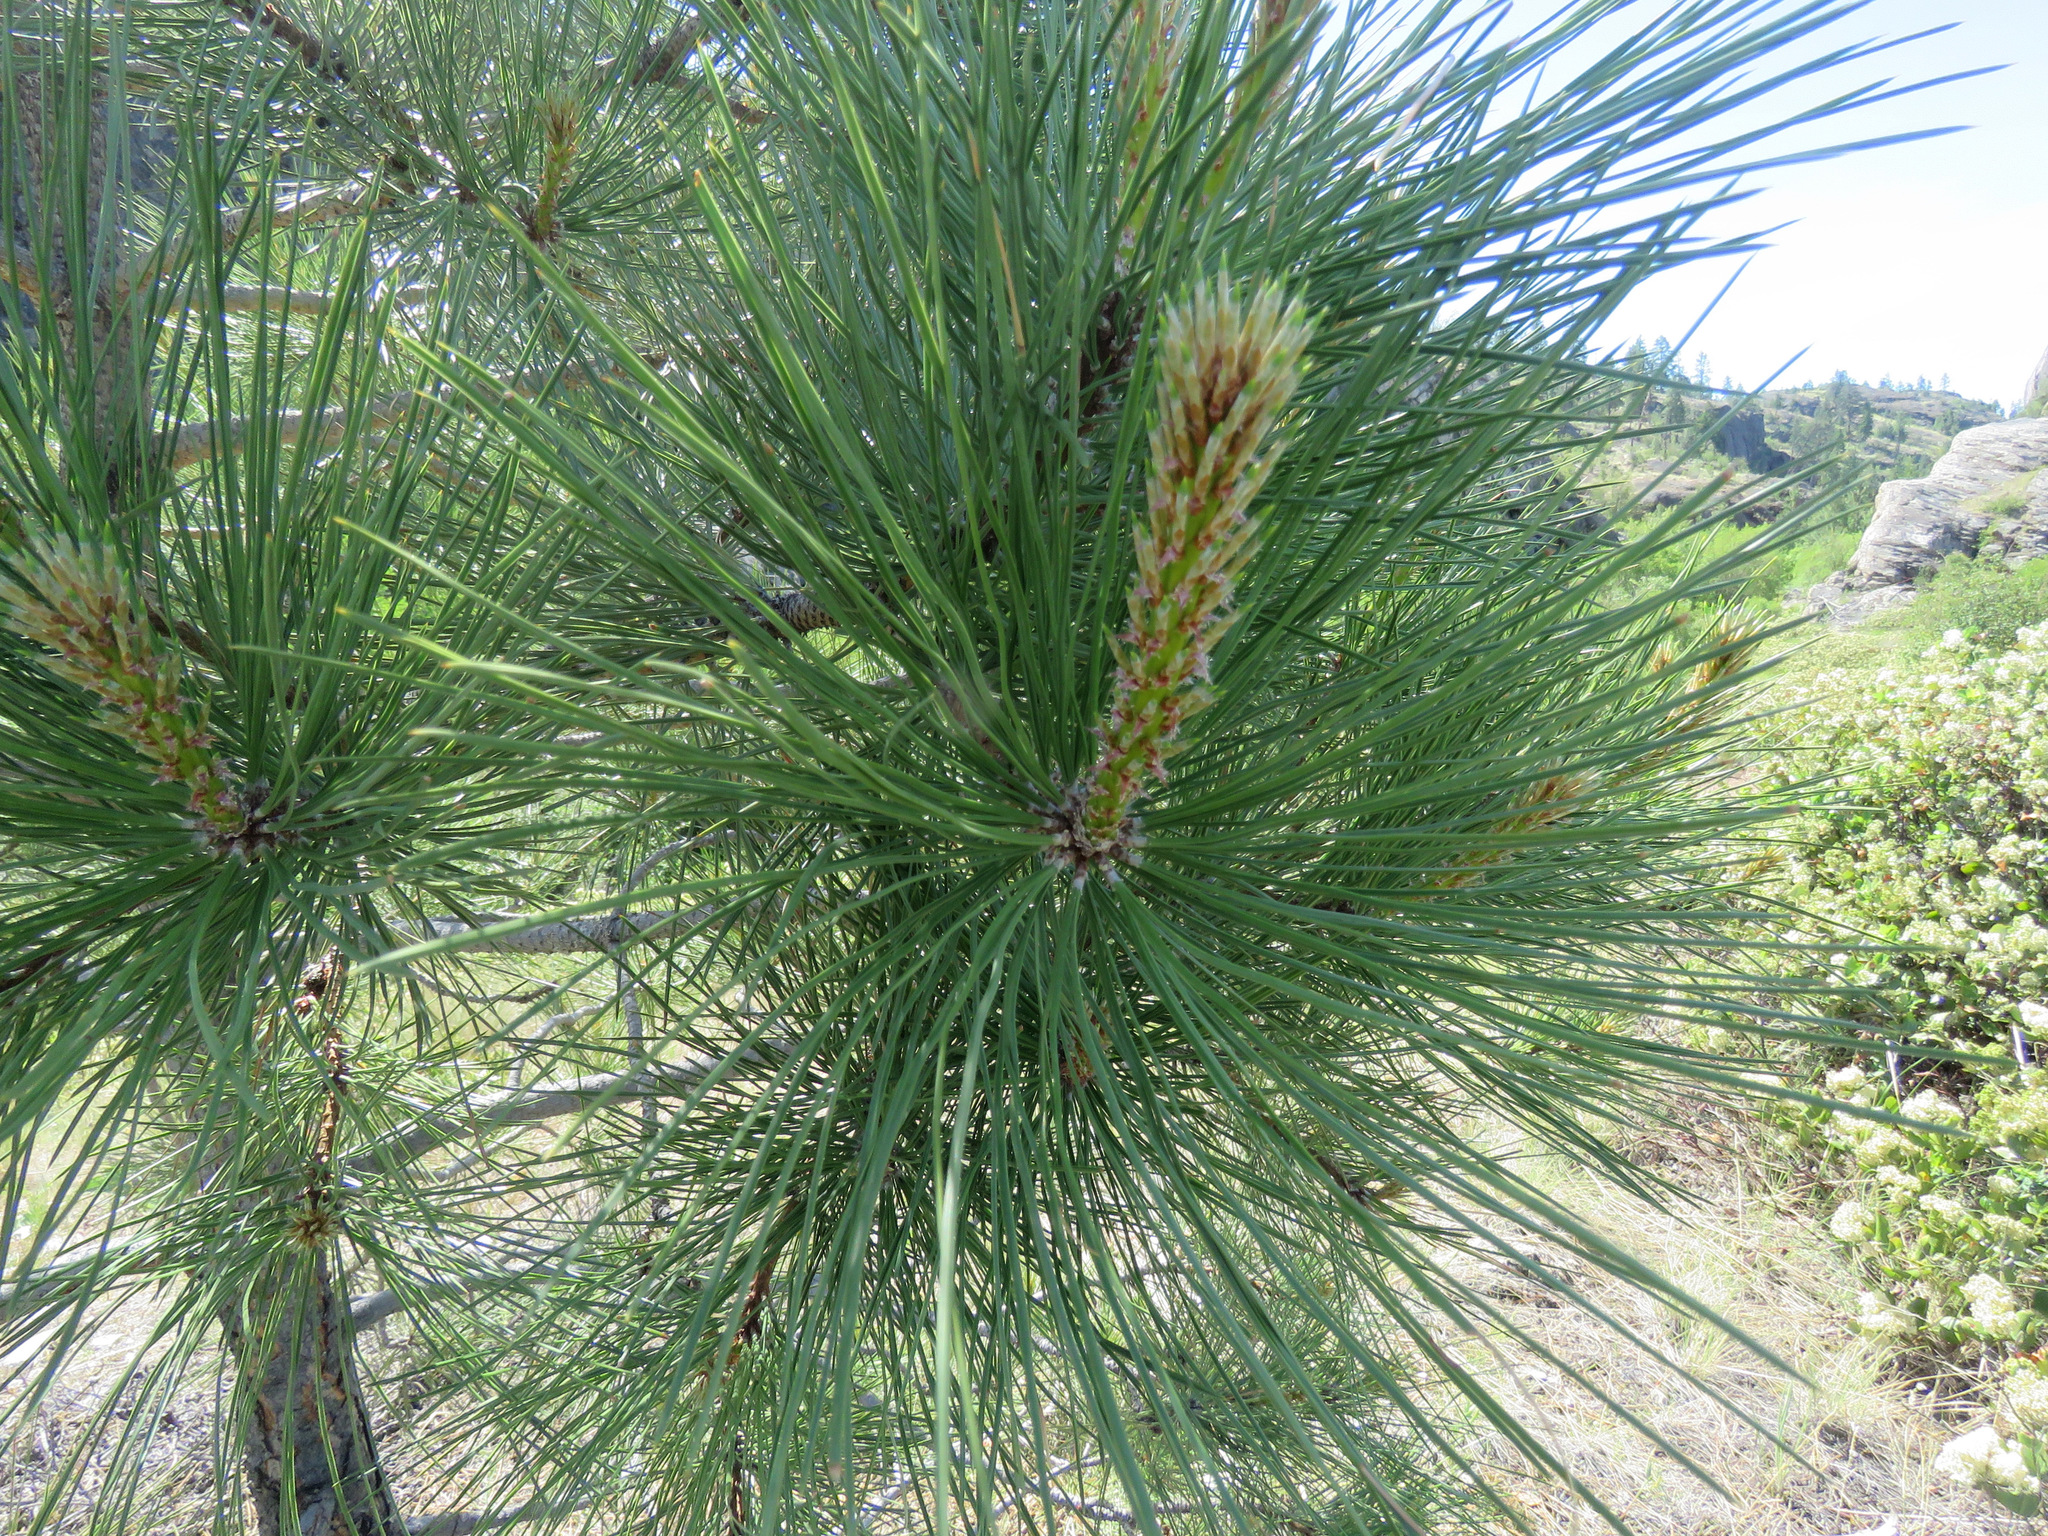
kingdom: Plantae
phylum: Tracheophyta
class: Pinopsida
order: Pinales
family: Pinaceae
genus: Pinus
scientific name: Pinus ponderosa
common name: Western yellow-pine
